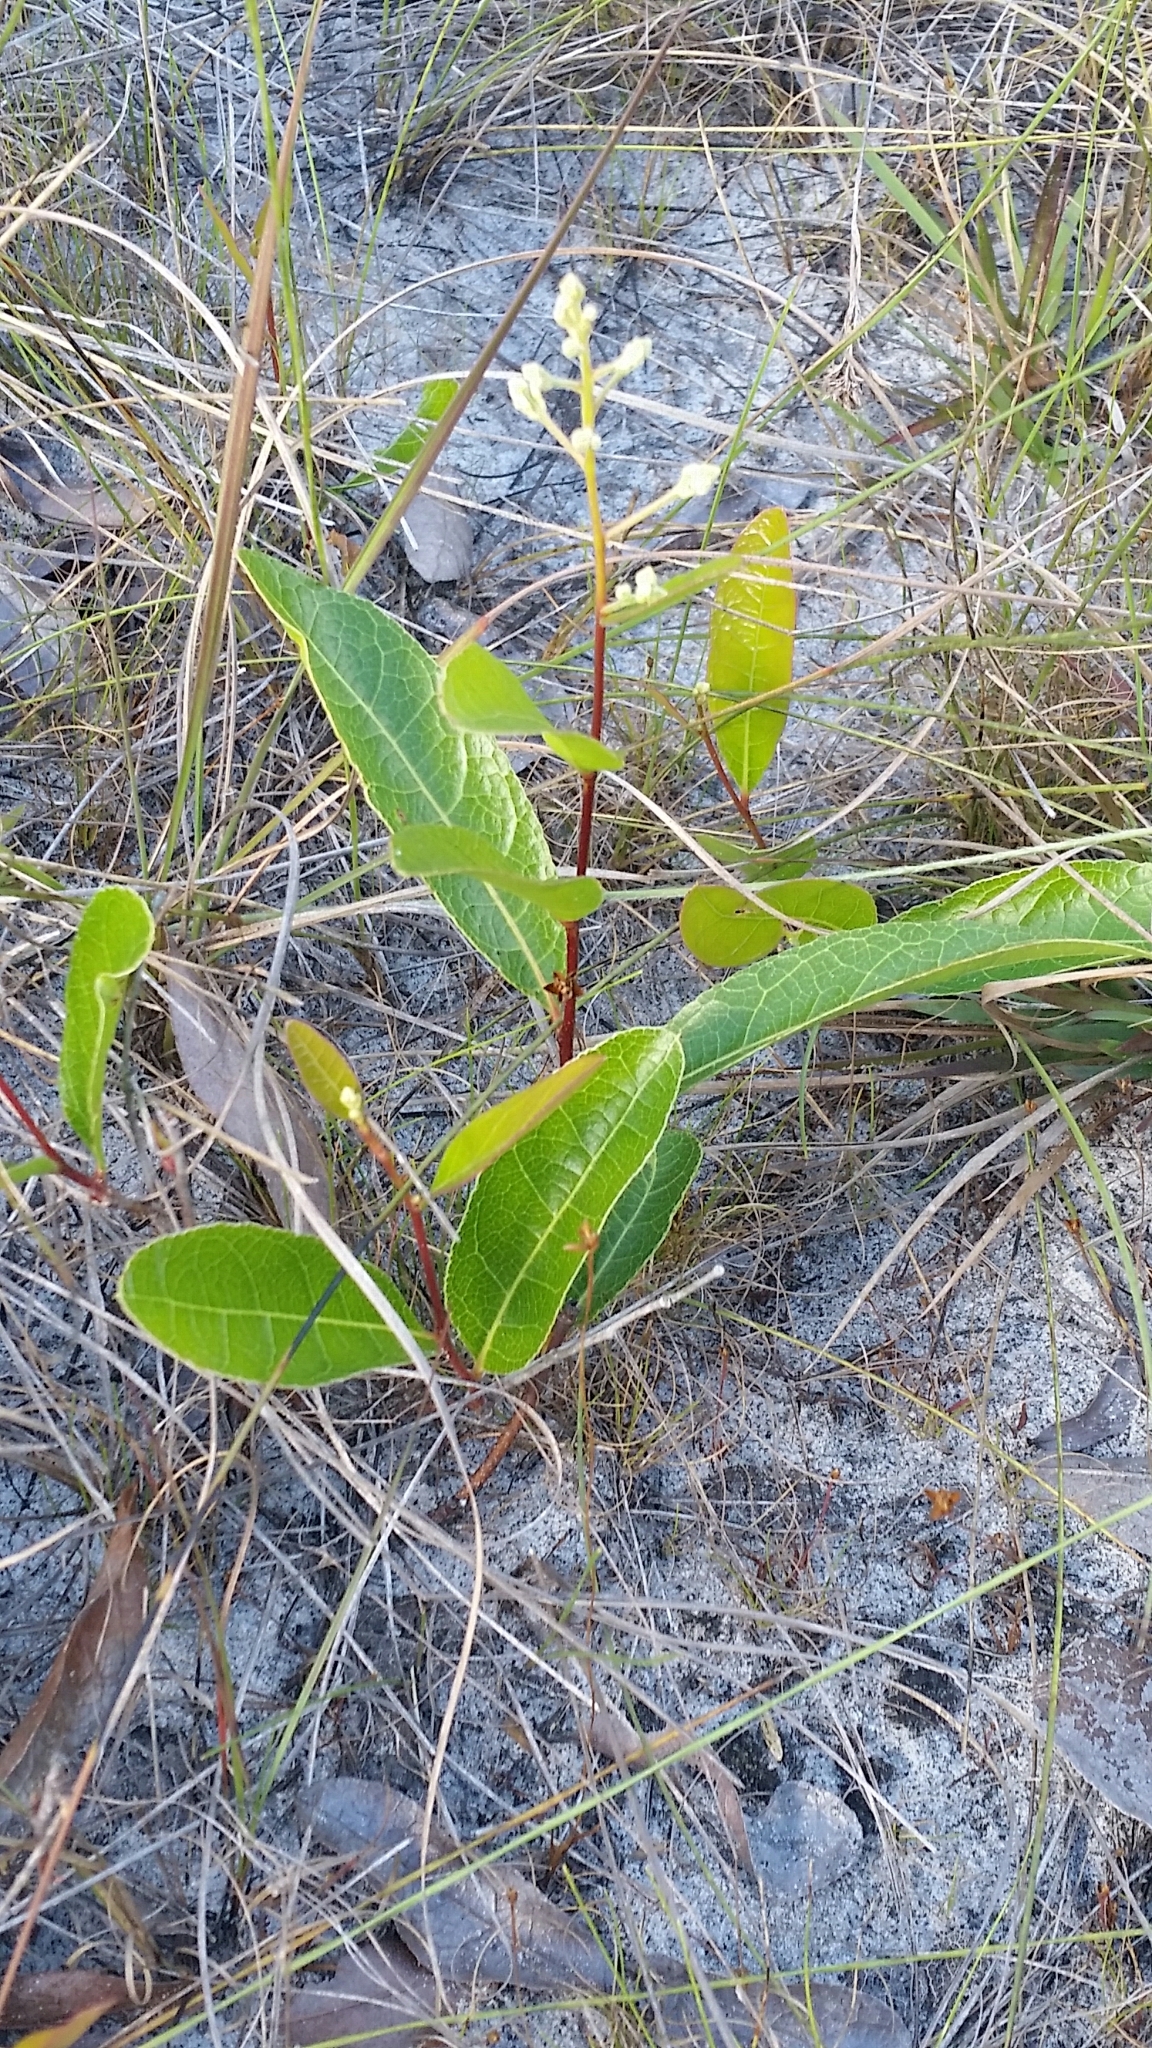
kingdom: Plantae
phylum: Tracheophyta
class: Magnoliopsida
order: Malpighiales
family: Chrysobalanaceae
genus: Geobalanus
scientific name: Geobalanus oblongifolius
